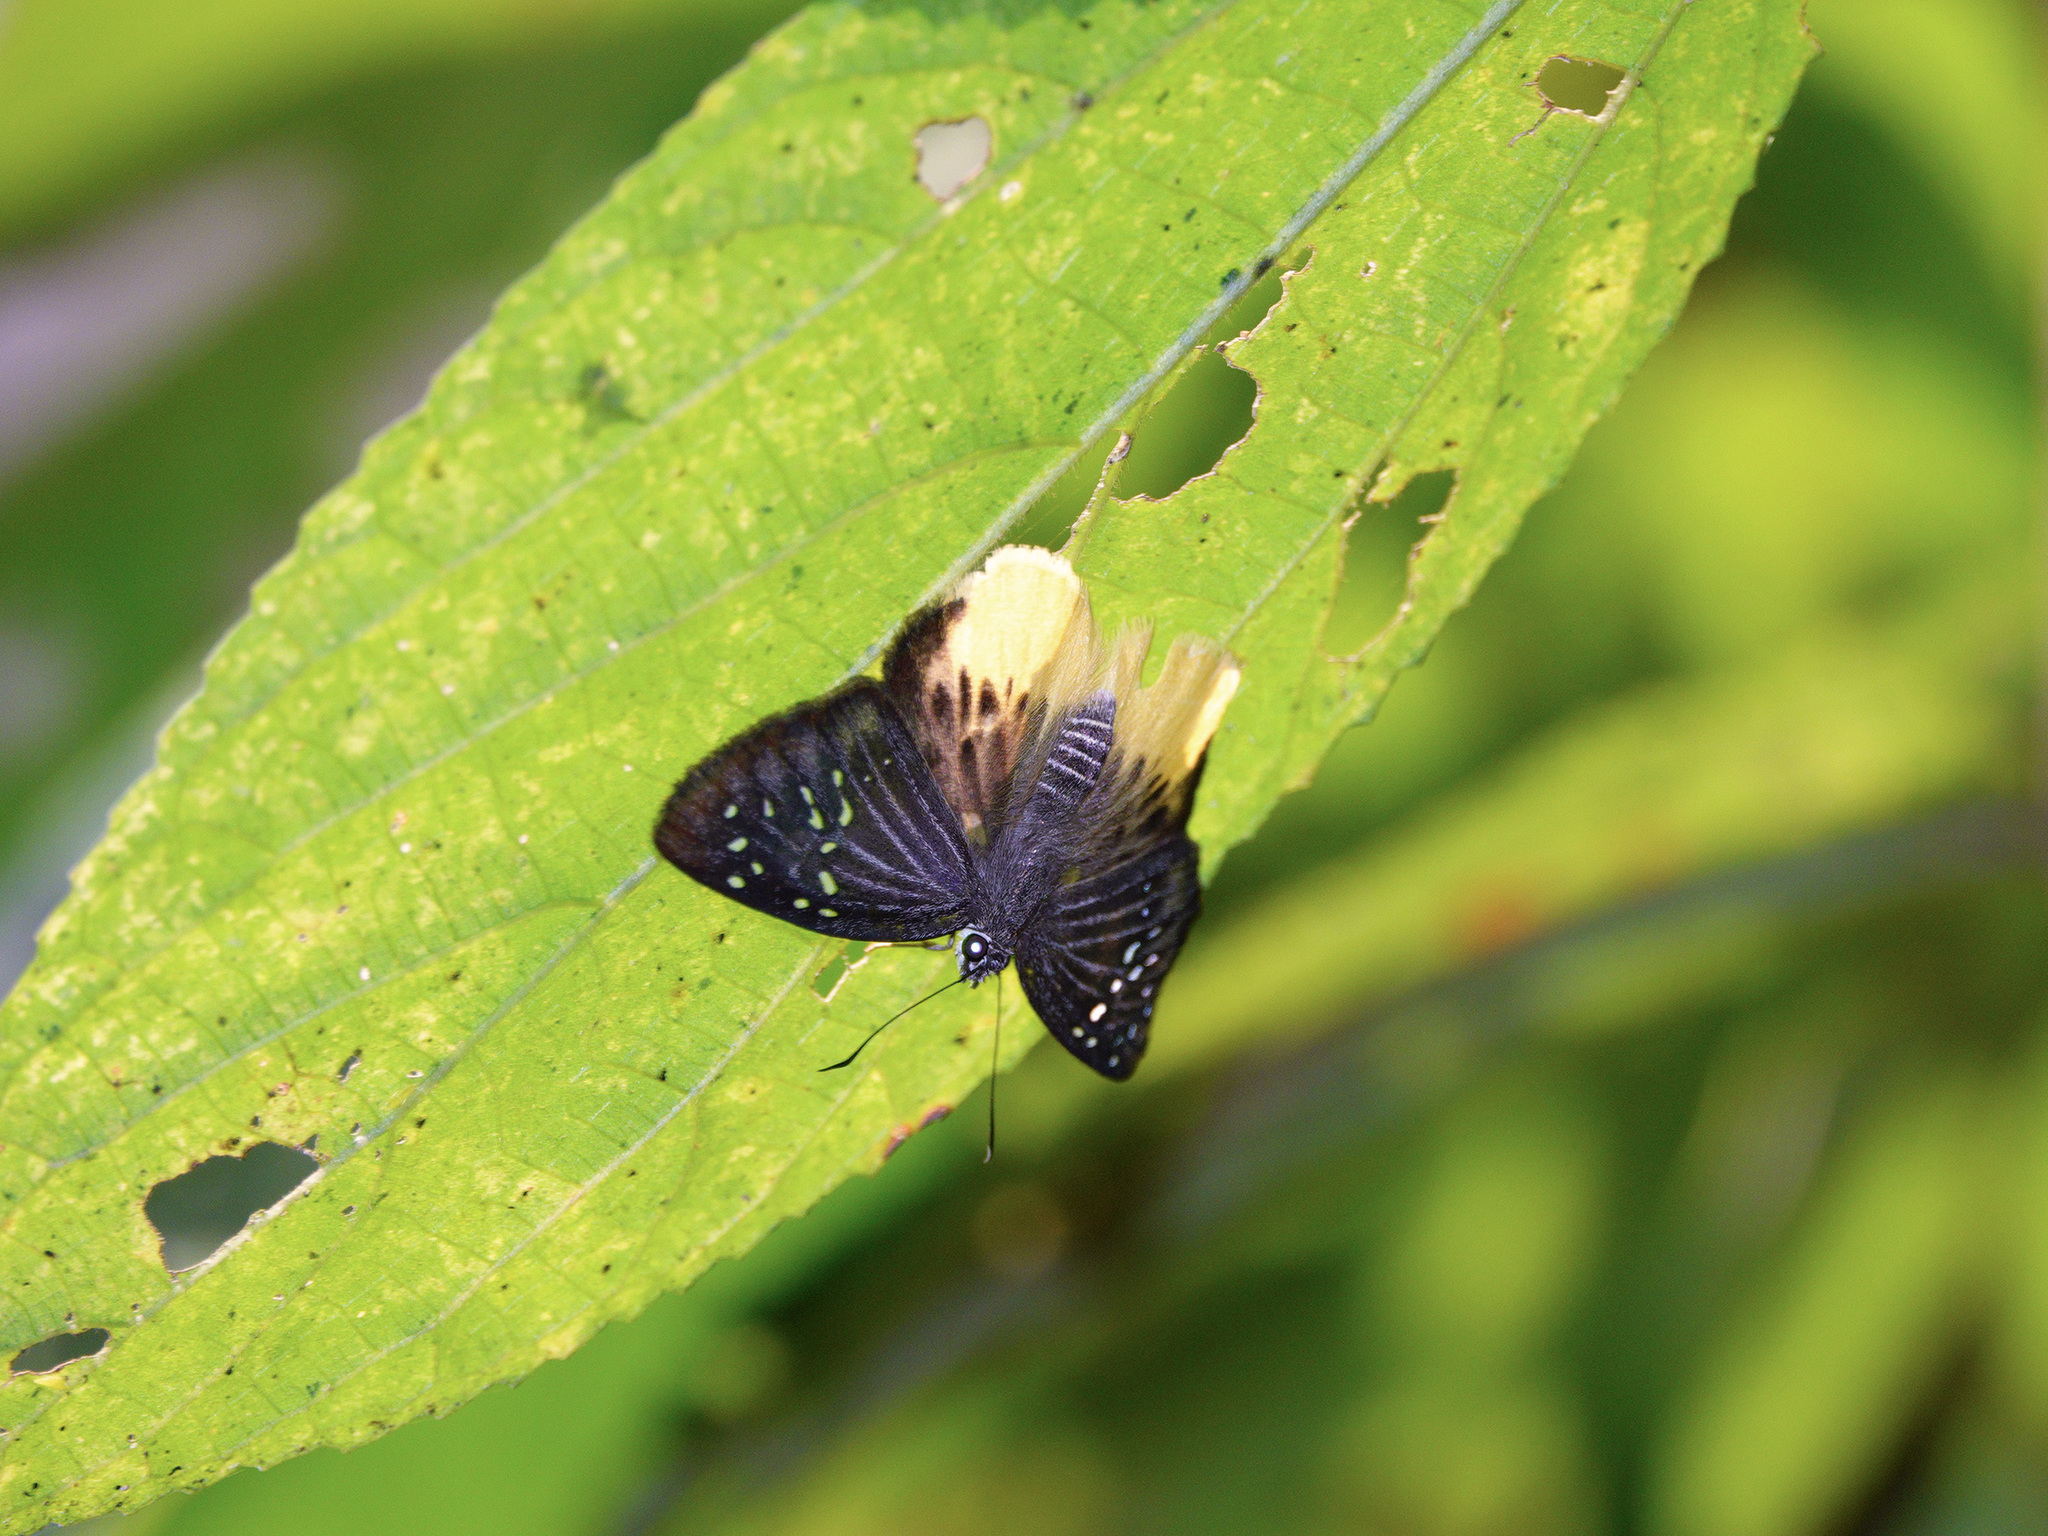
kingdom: Animalia
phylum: Arthropoda
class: Insecta
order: Lepidoptera
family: Hesperiidae
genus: Mooreana
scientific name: Mooreana trichoneura
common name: Yellow flat
